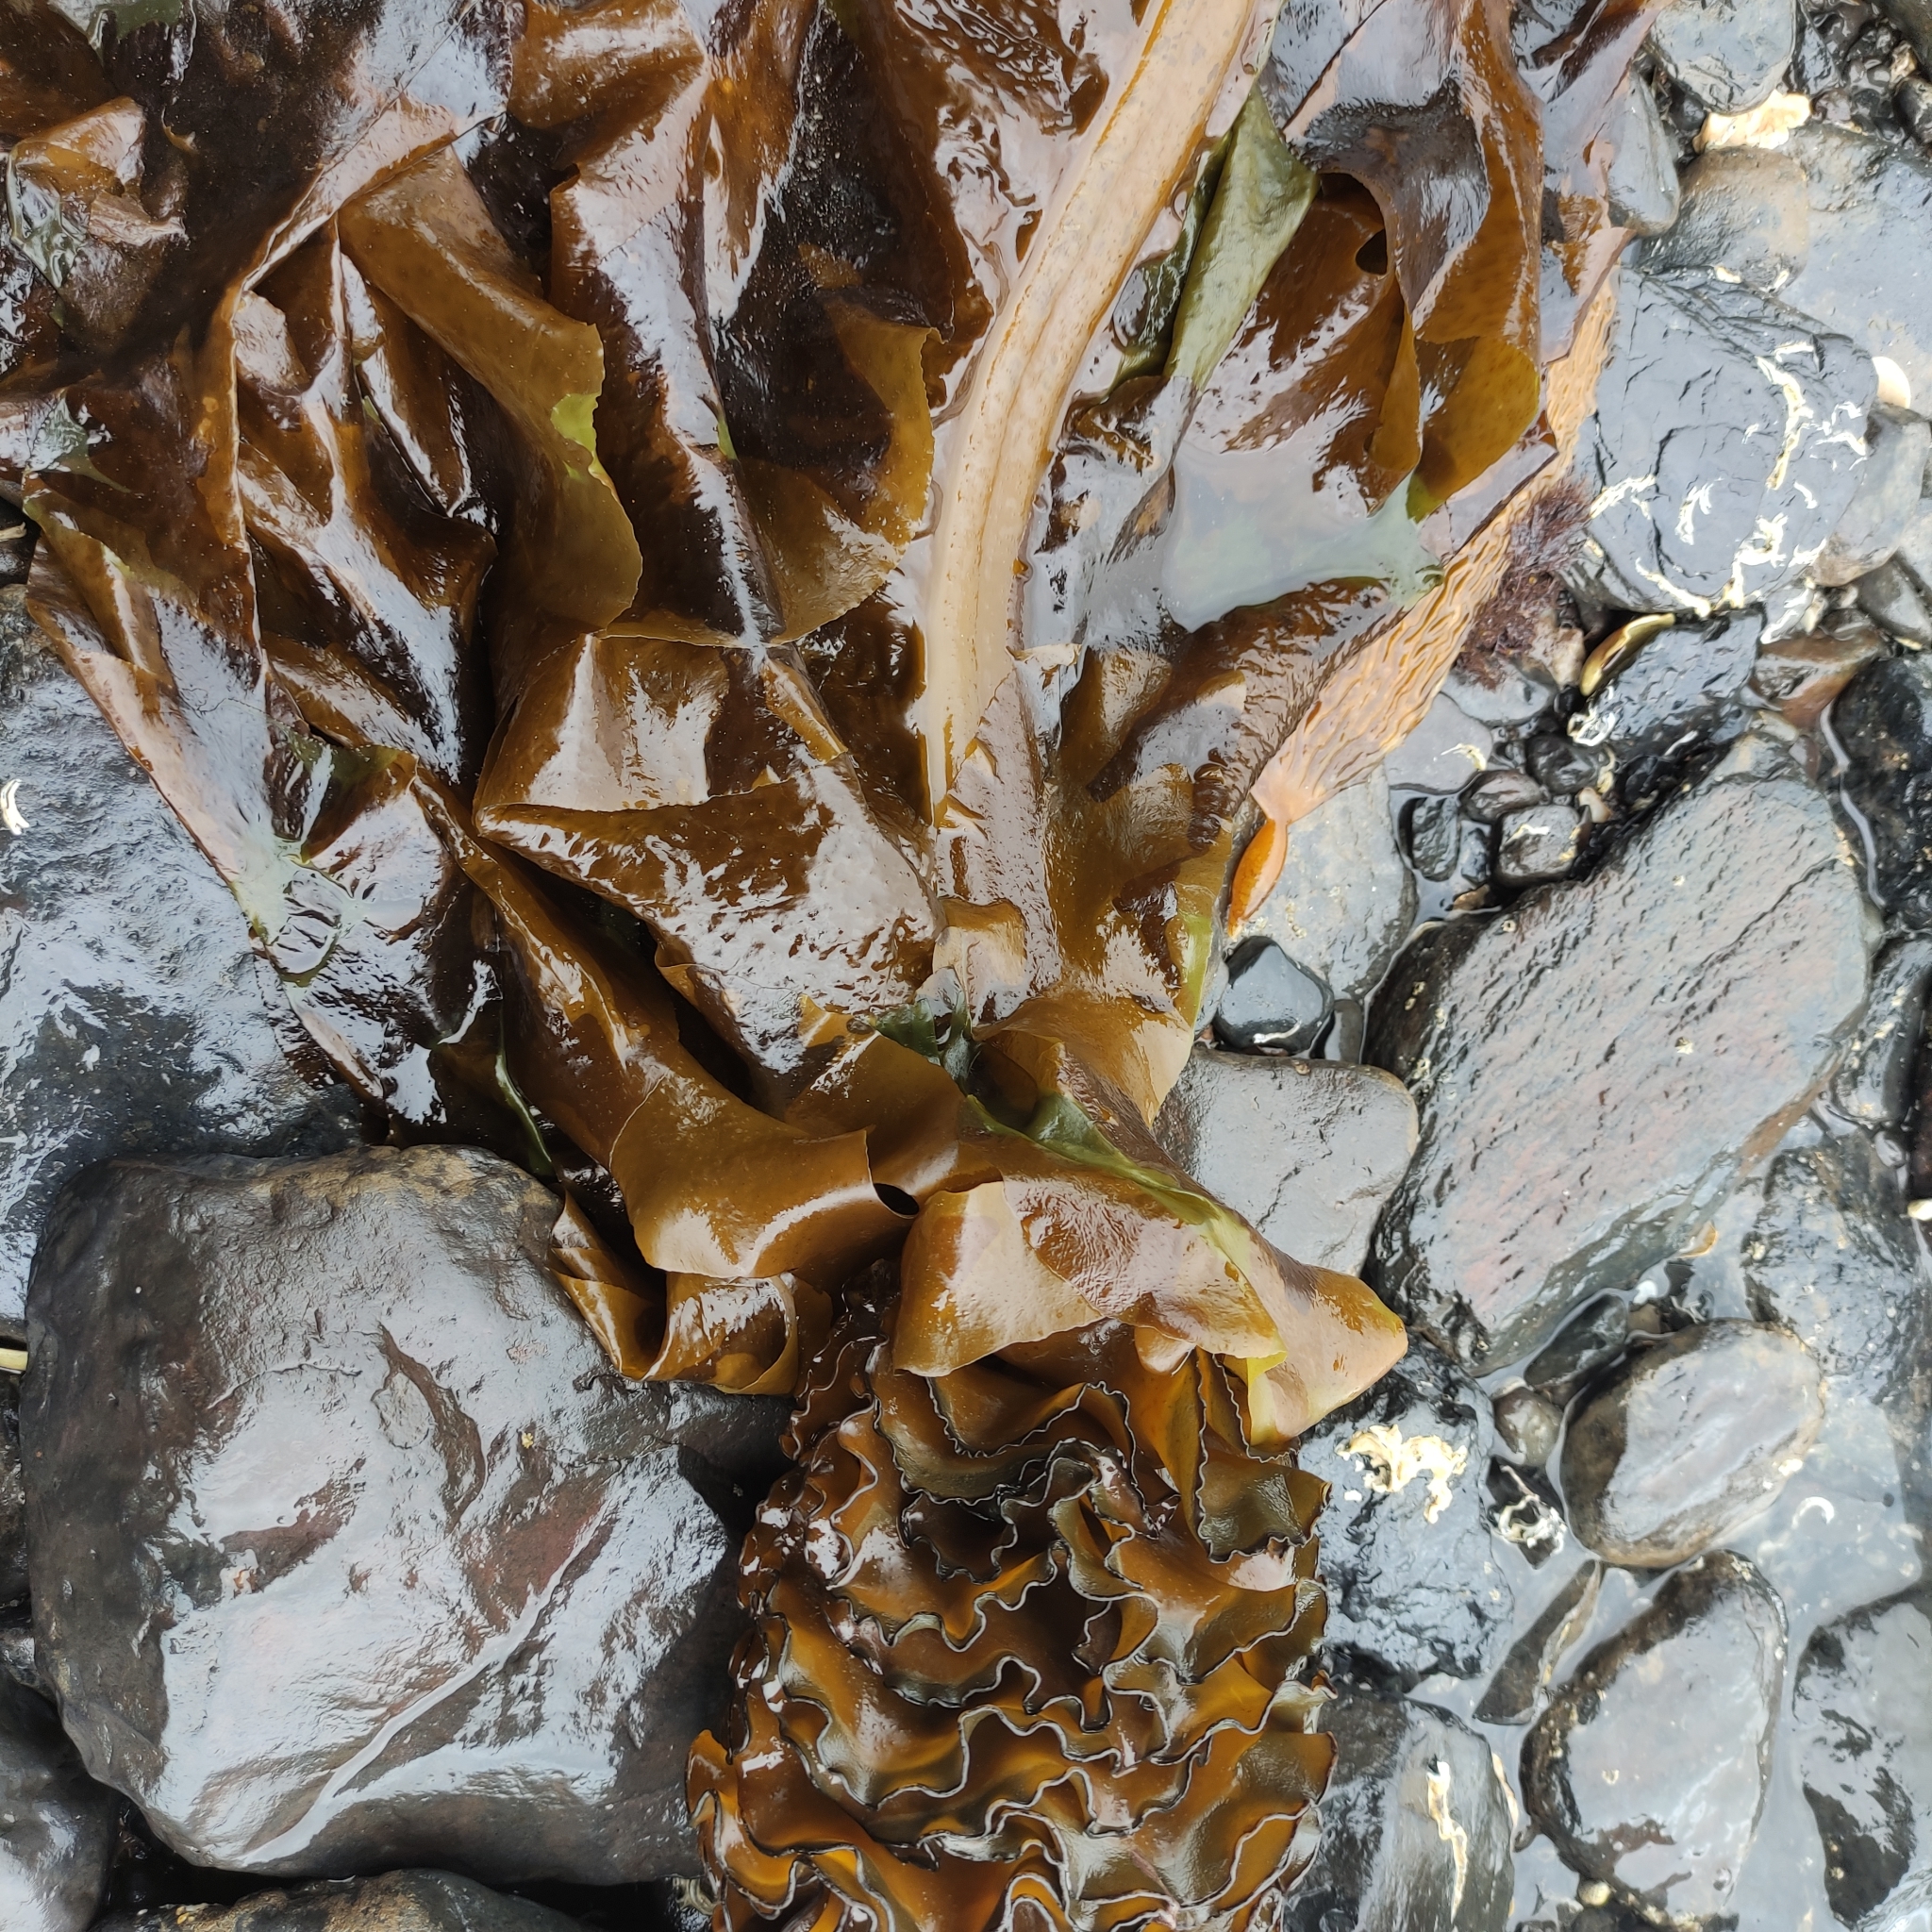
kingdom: Chromista
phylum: Ochrophyta
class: Phaeophyceae
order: Laminariales
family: Alariaceae
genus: Undaria
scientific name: Undaria pinnatifida
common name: Asian kelp
